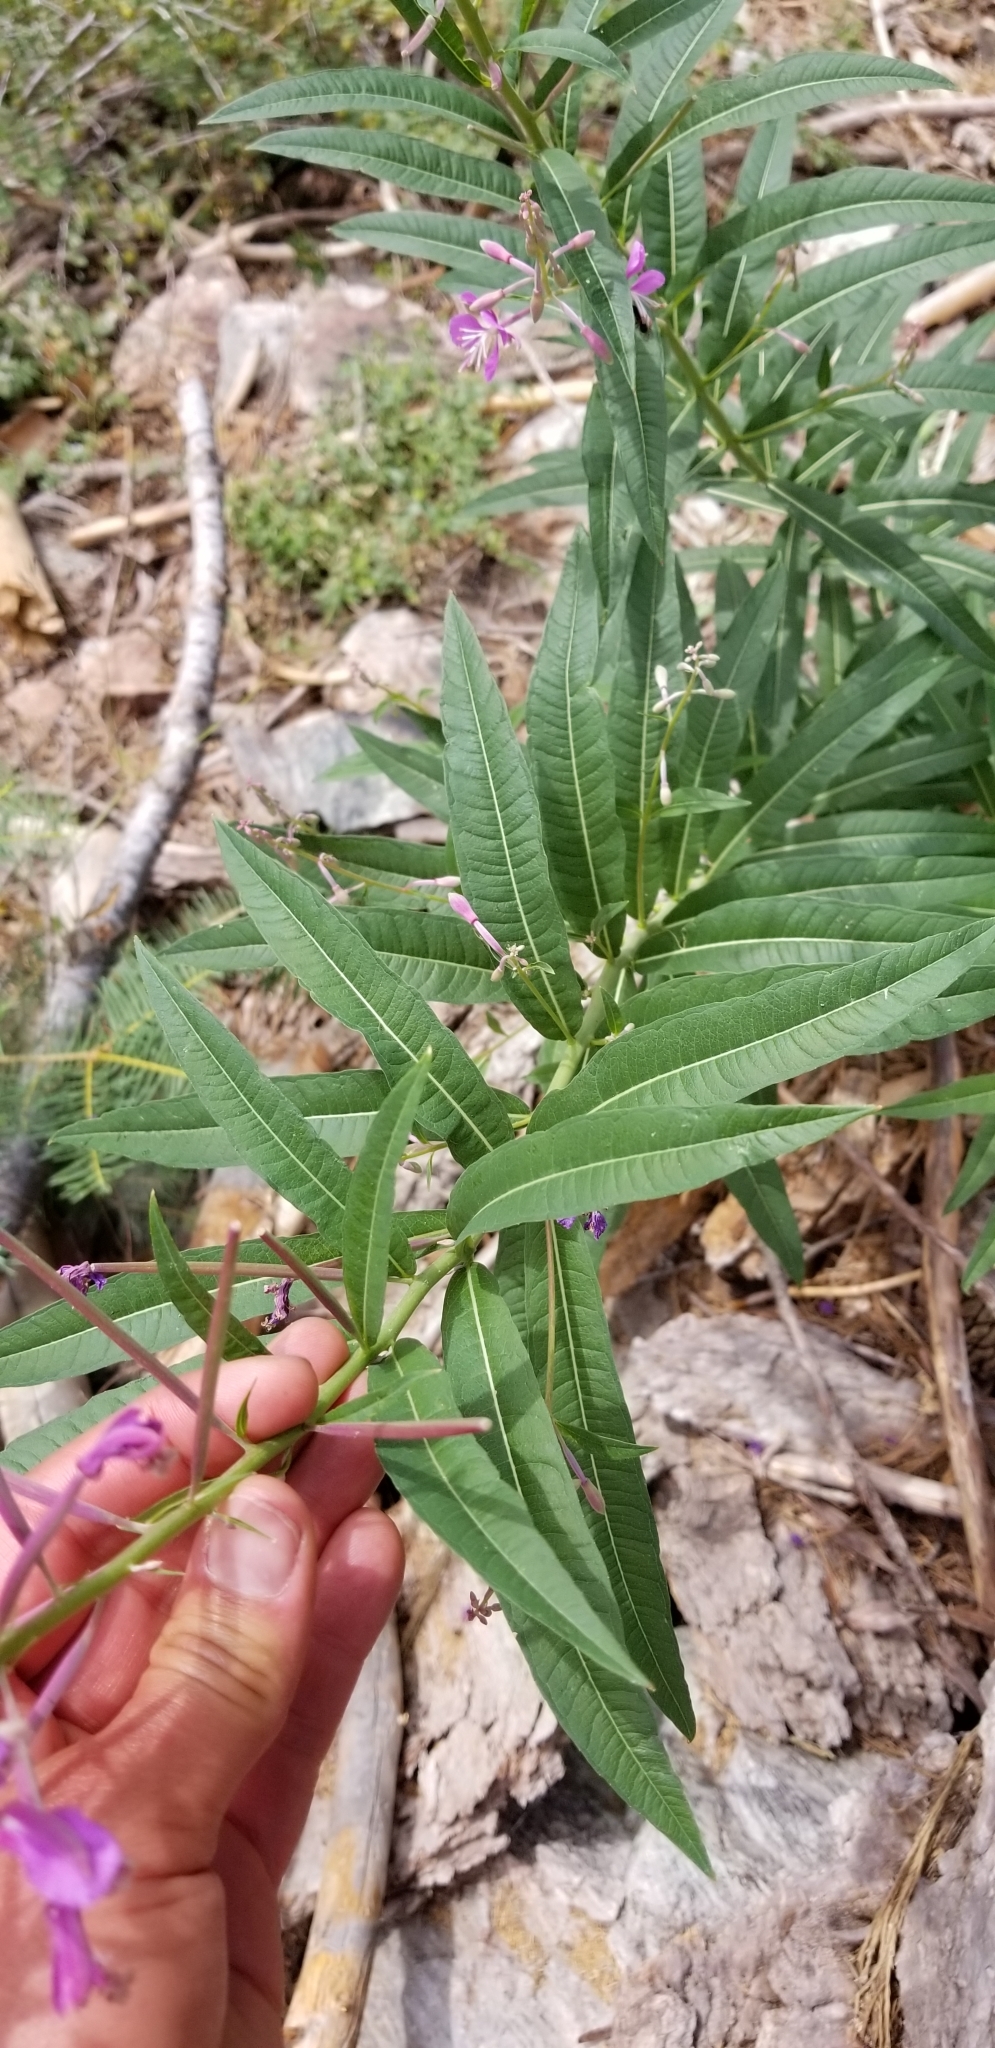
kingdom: Plantae
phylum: Tracheophyta
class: Magnoliopsida
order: Myrtales
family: Onagraceae
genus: Chamaenerion
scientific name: Chamaenerion angustifolium
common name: Fireweed
